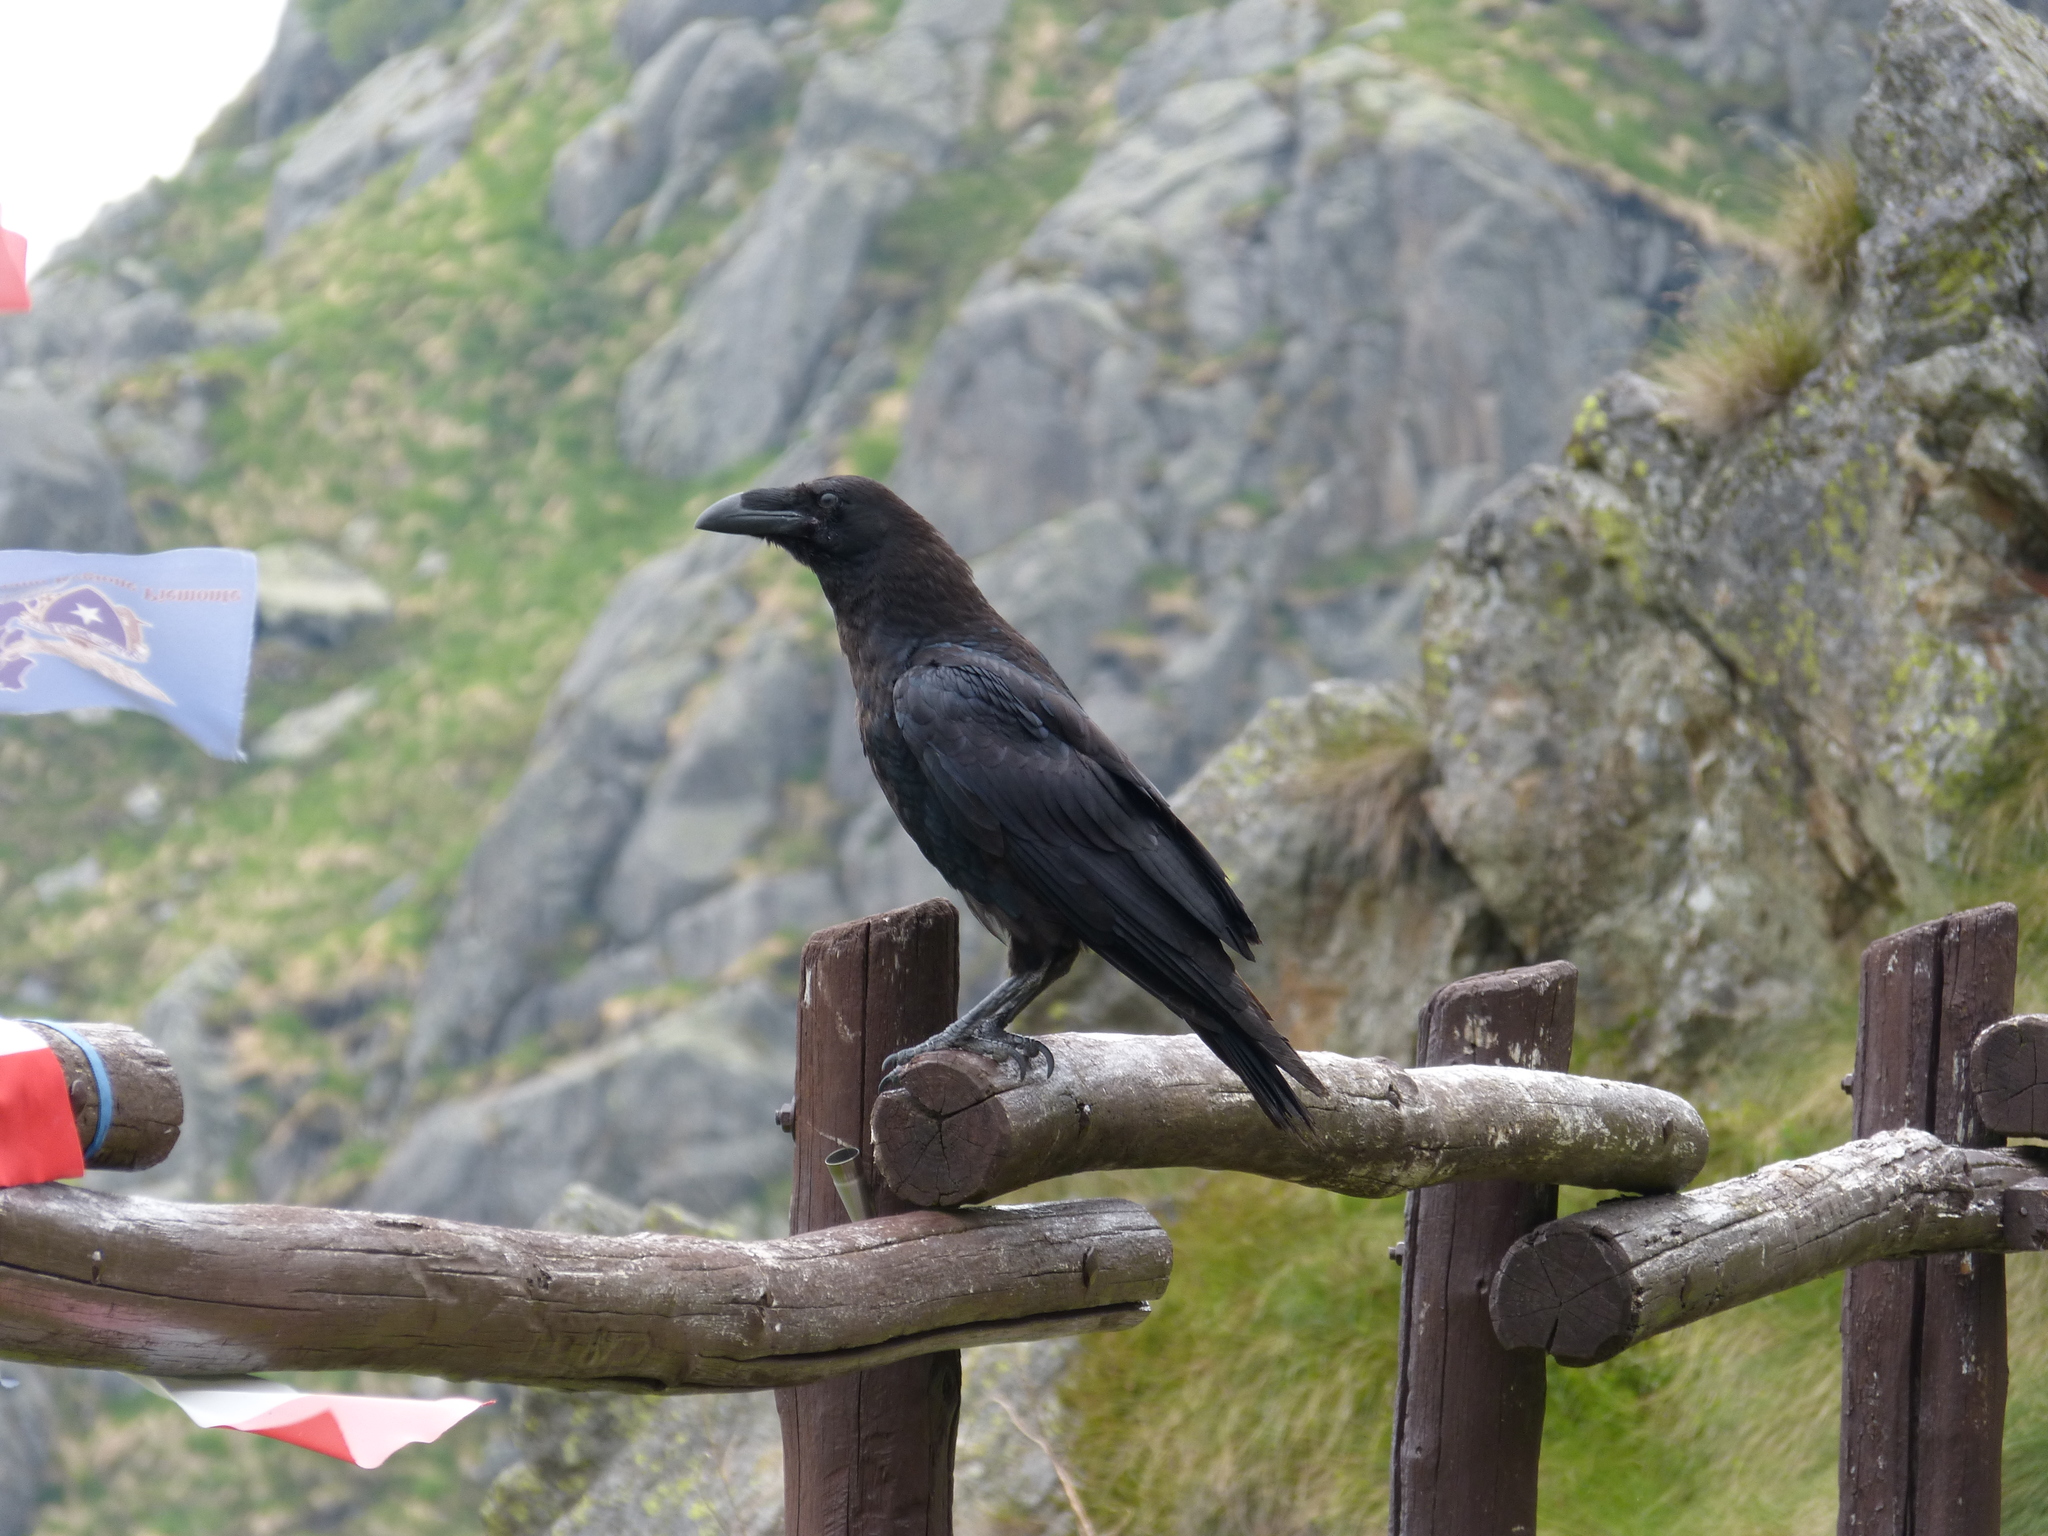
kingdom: Animalia
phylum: Chordata
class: Aves
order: Passeriformes
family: Corvidae
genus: Corvus
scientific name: Corvus corax
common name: Common raven
